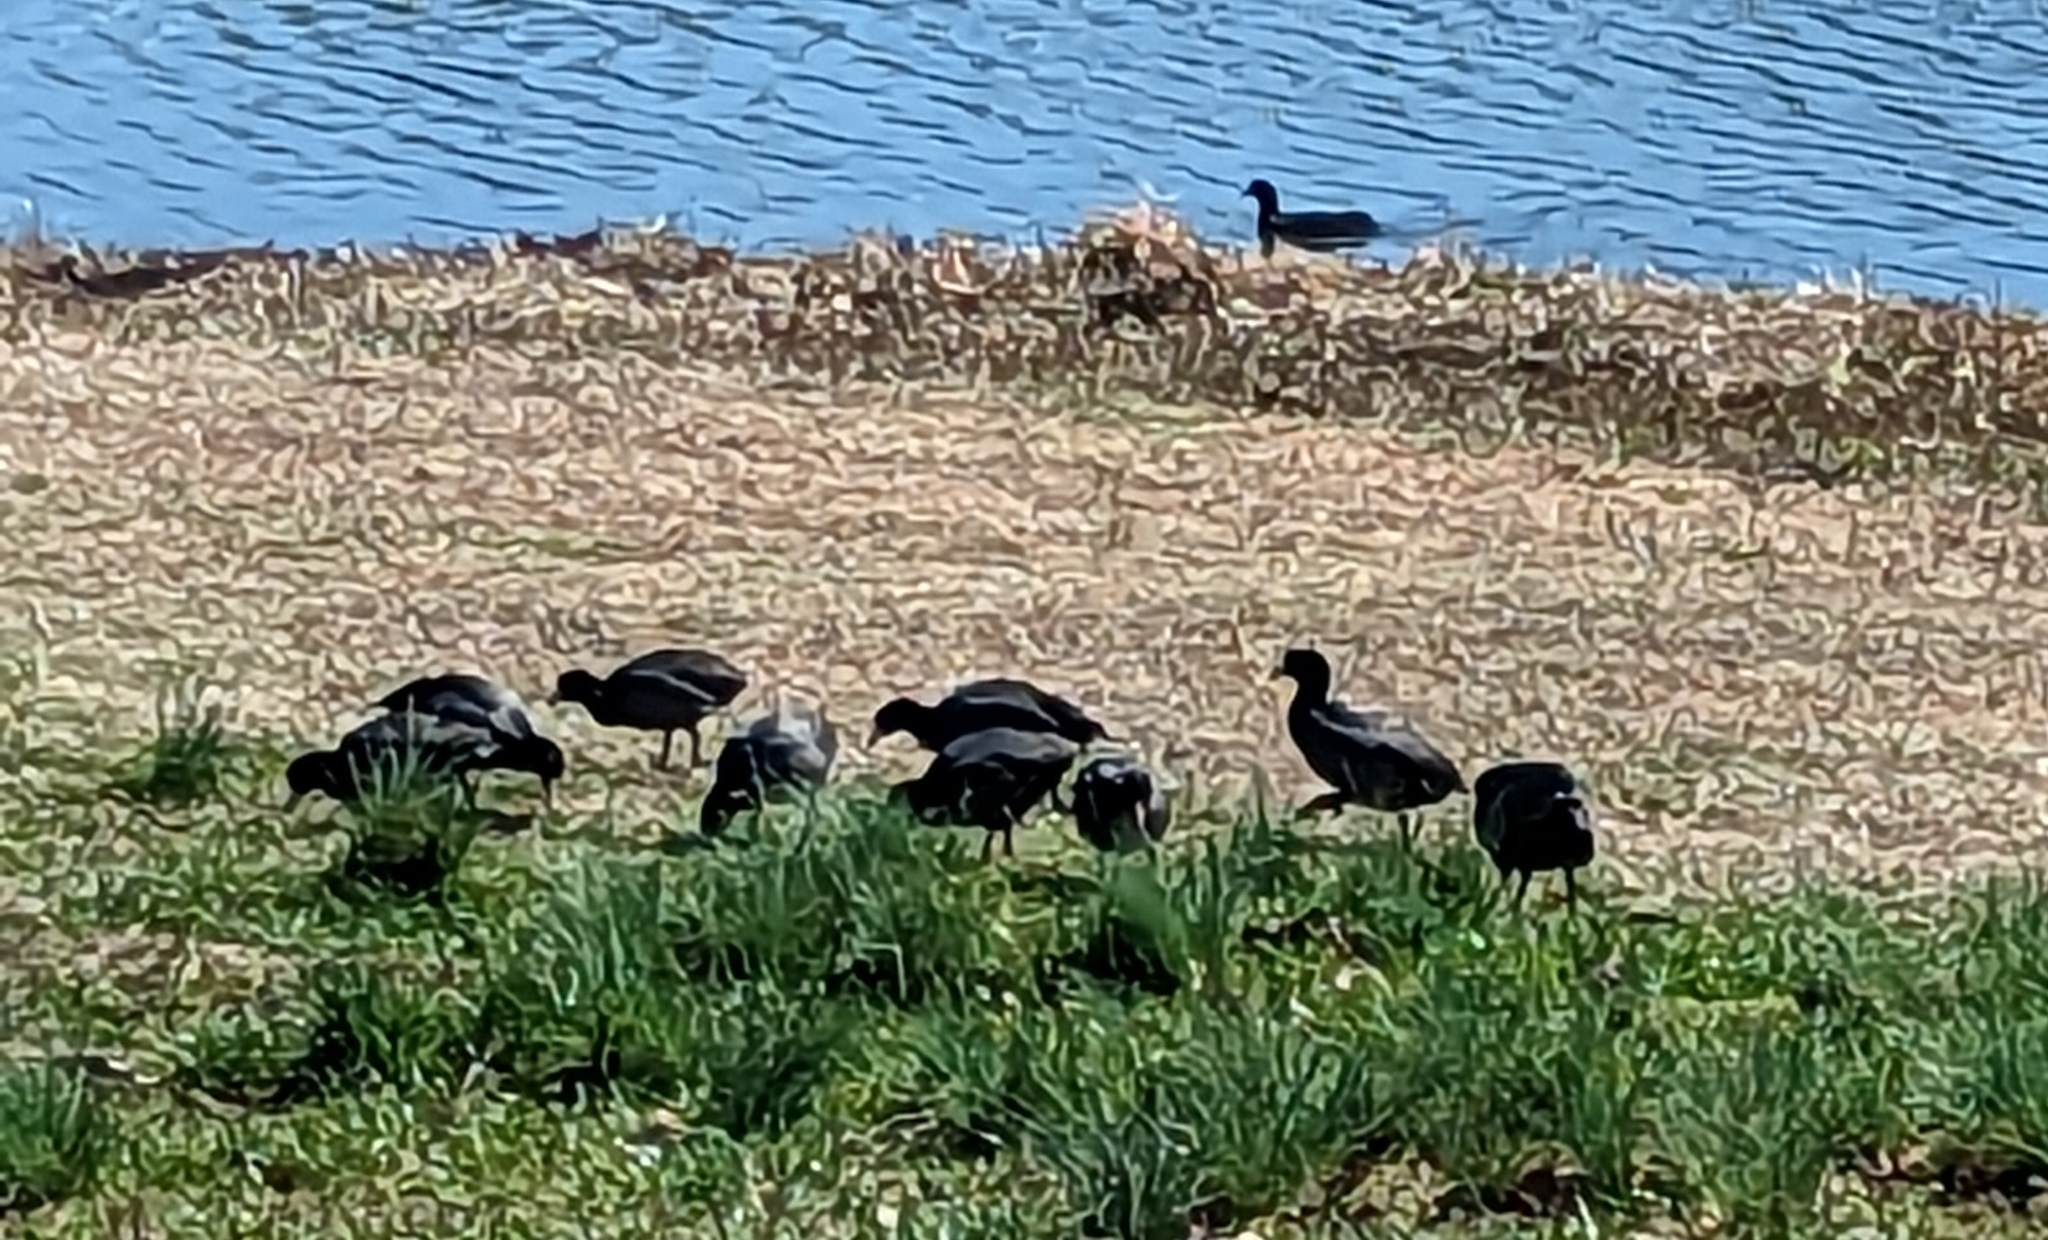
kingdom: Animalia
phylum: Chordata
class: Aves
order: Gruiformes
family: Rallidae
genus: Fulica
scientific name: Fulica americana
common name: American coot
